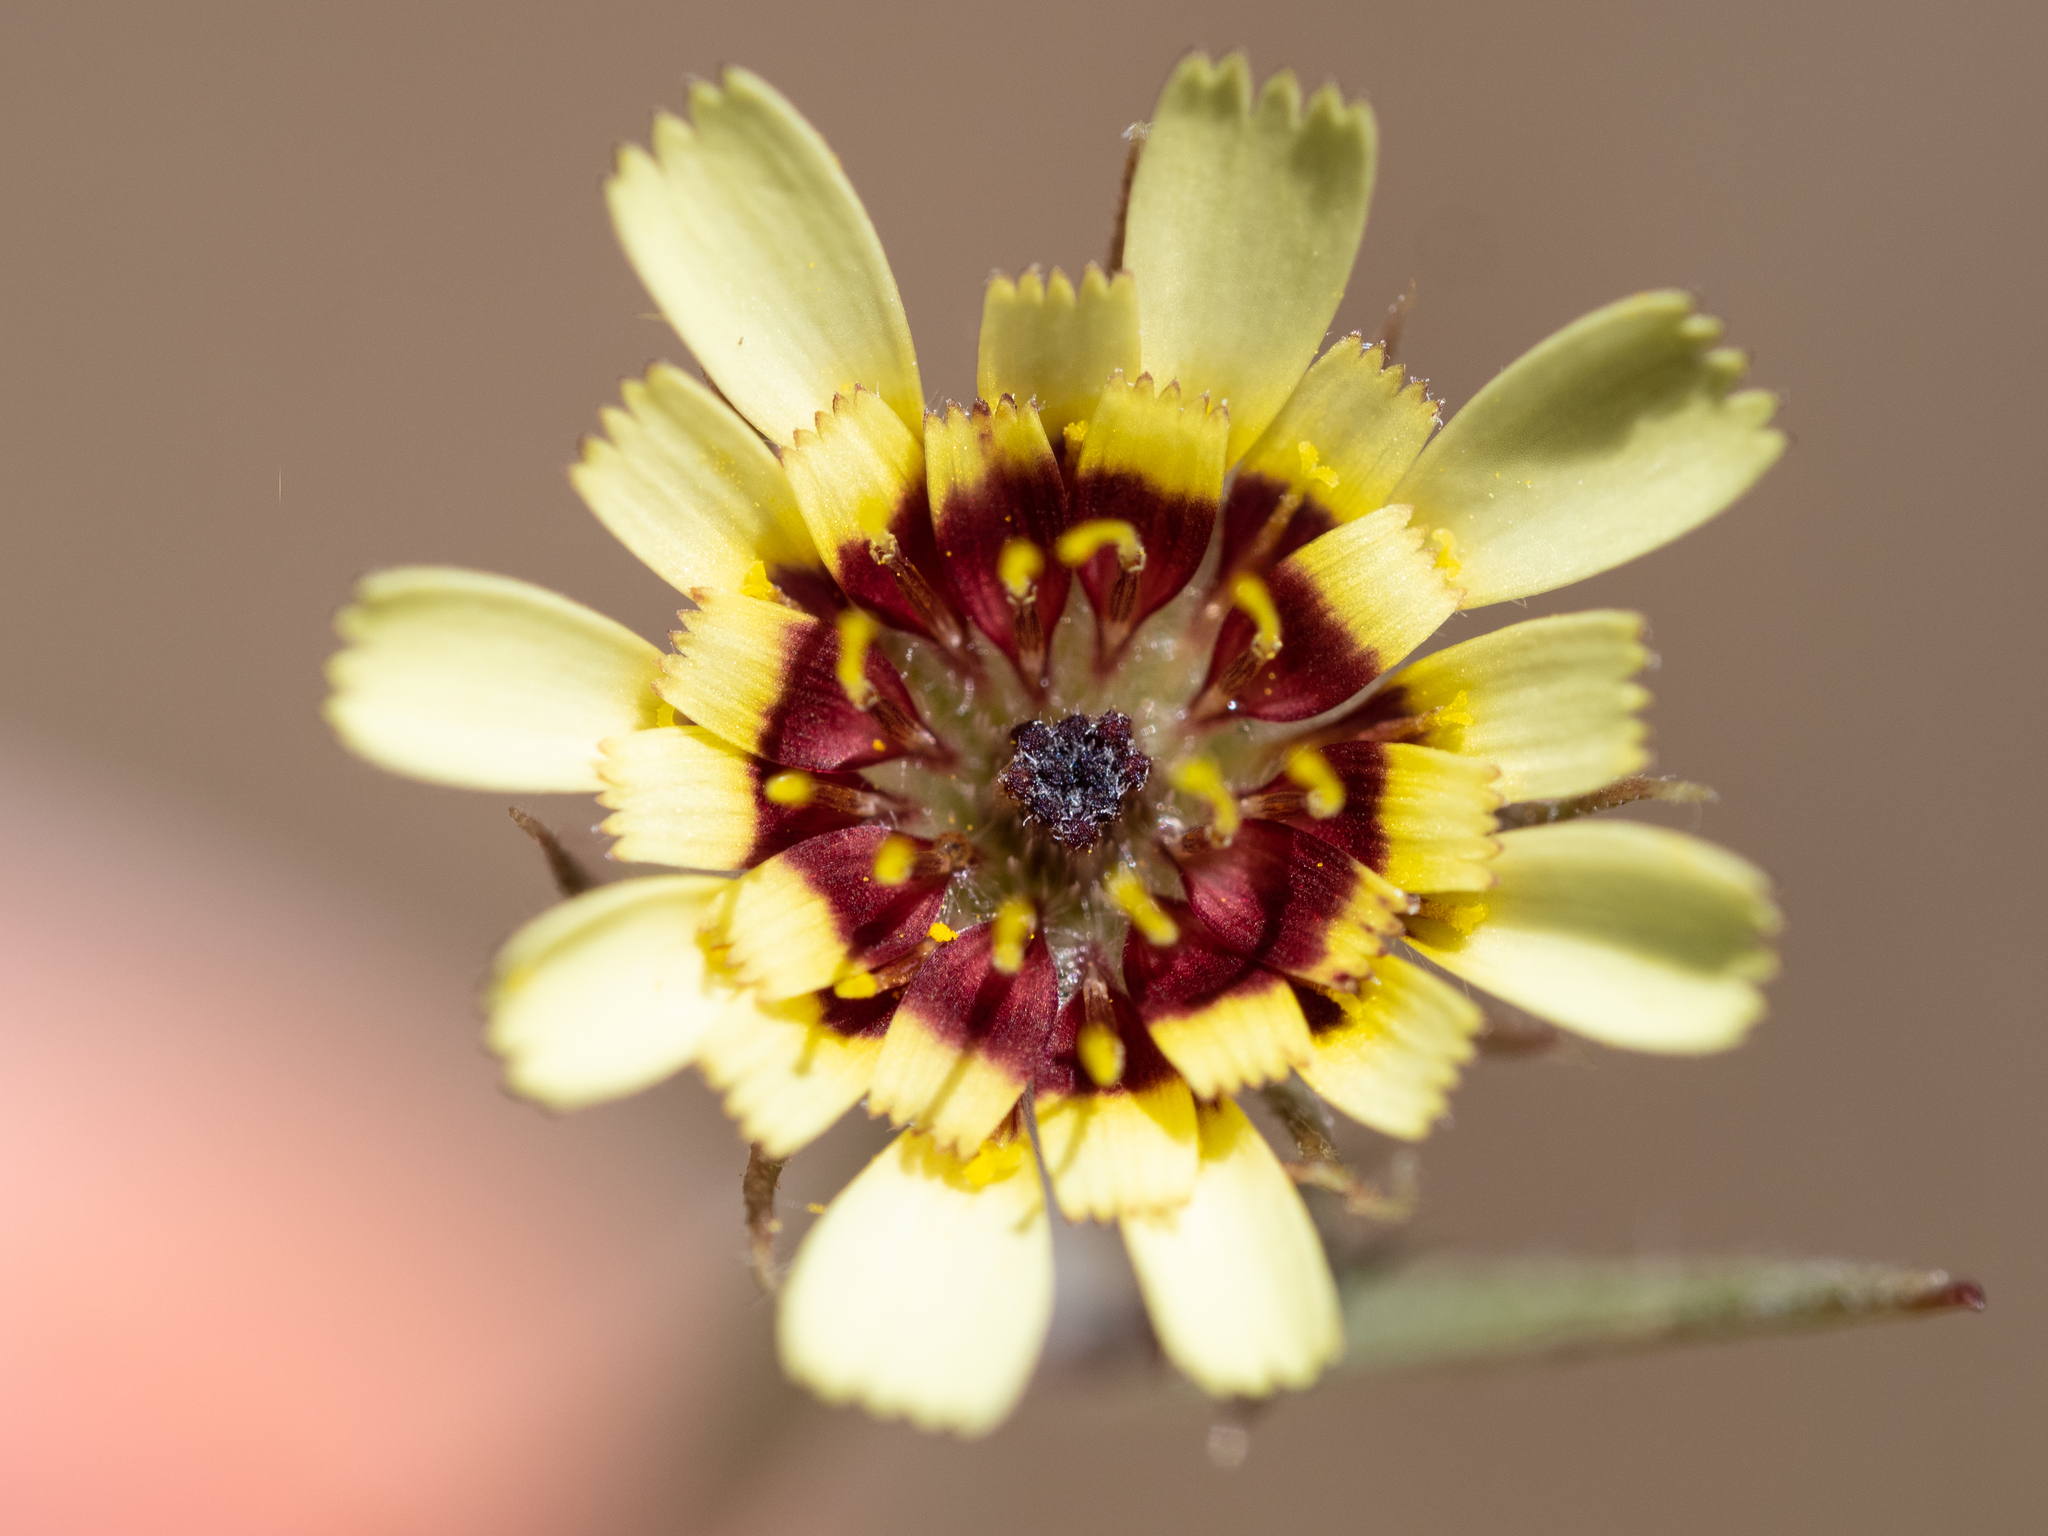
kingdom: Plantae
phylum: Tracheophyta
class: Magnoliopsida
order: Asterales
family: Asteraceae
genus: Tolpis
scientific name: Tolpis barbata
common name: Yellow hawkweed
